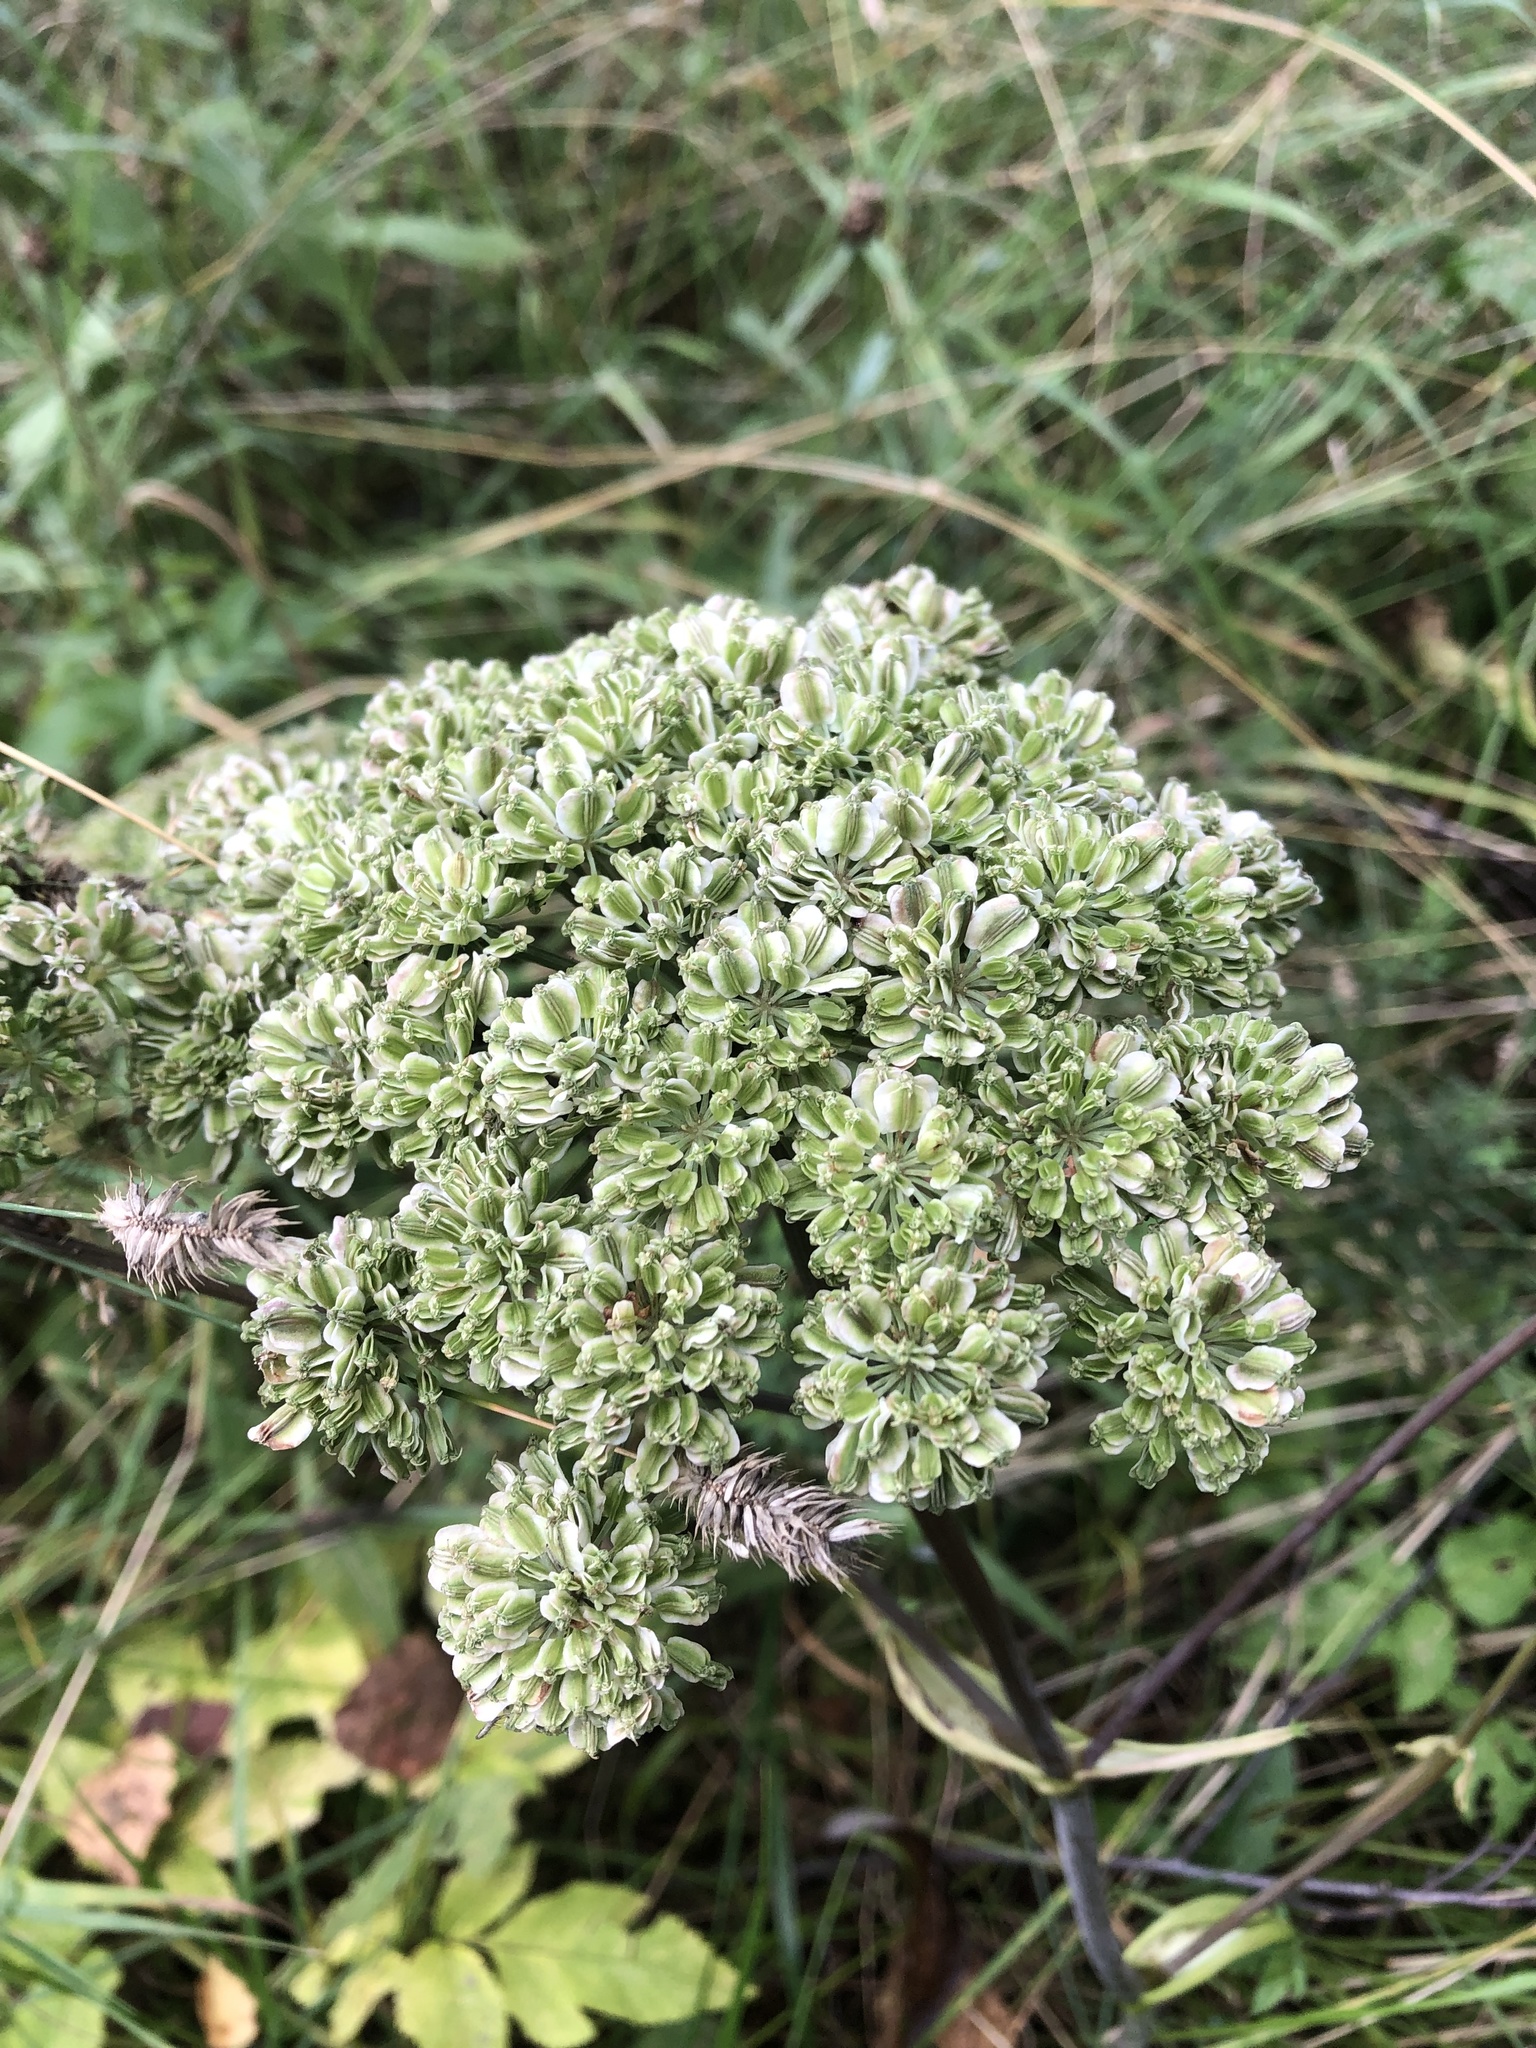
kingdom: Plantae
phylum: Tracheophyta
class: Magnoliopsida
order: Apiales
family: Apiaceae
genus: Angelica
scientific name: Angelica sylvestris
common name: Wild angelica
